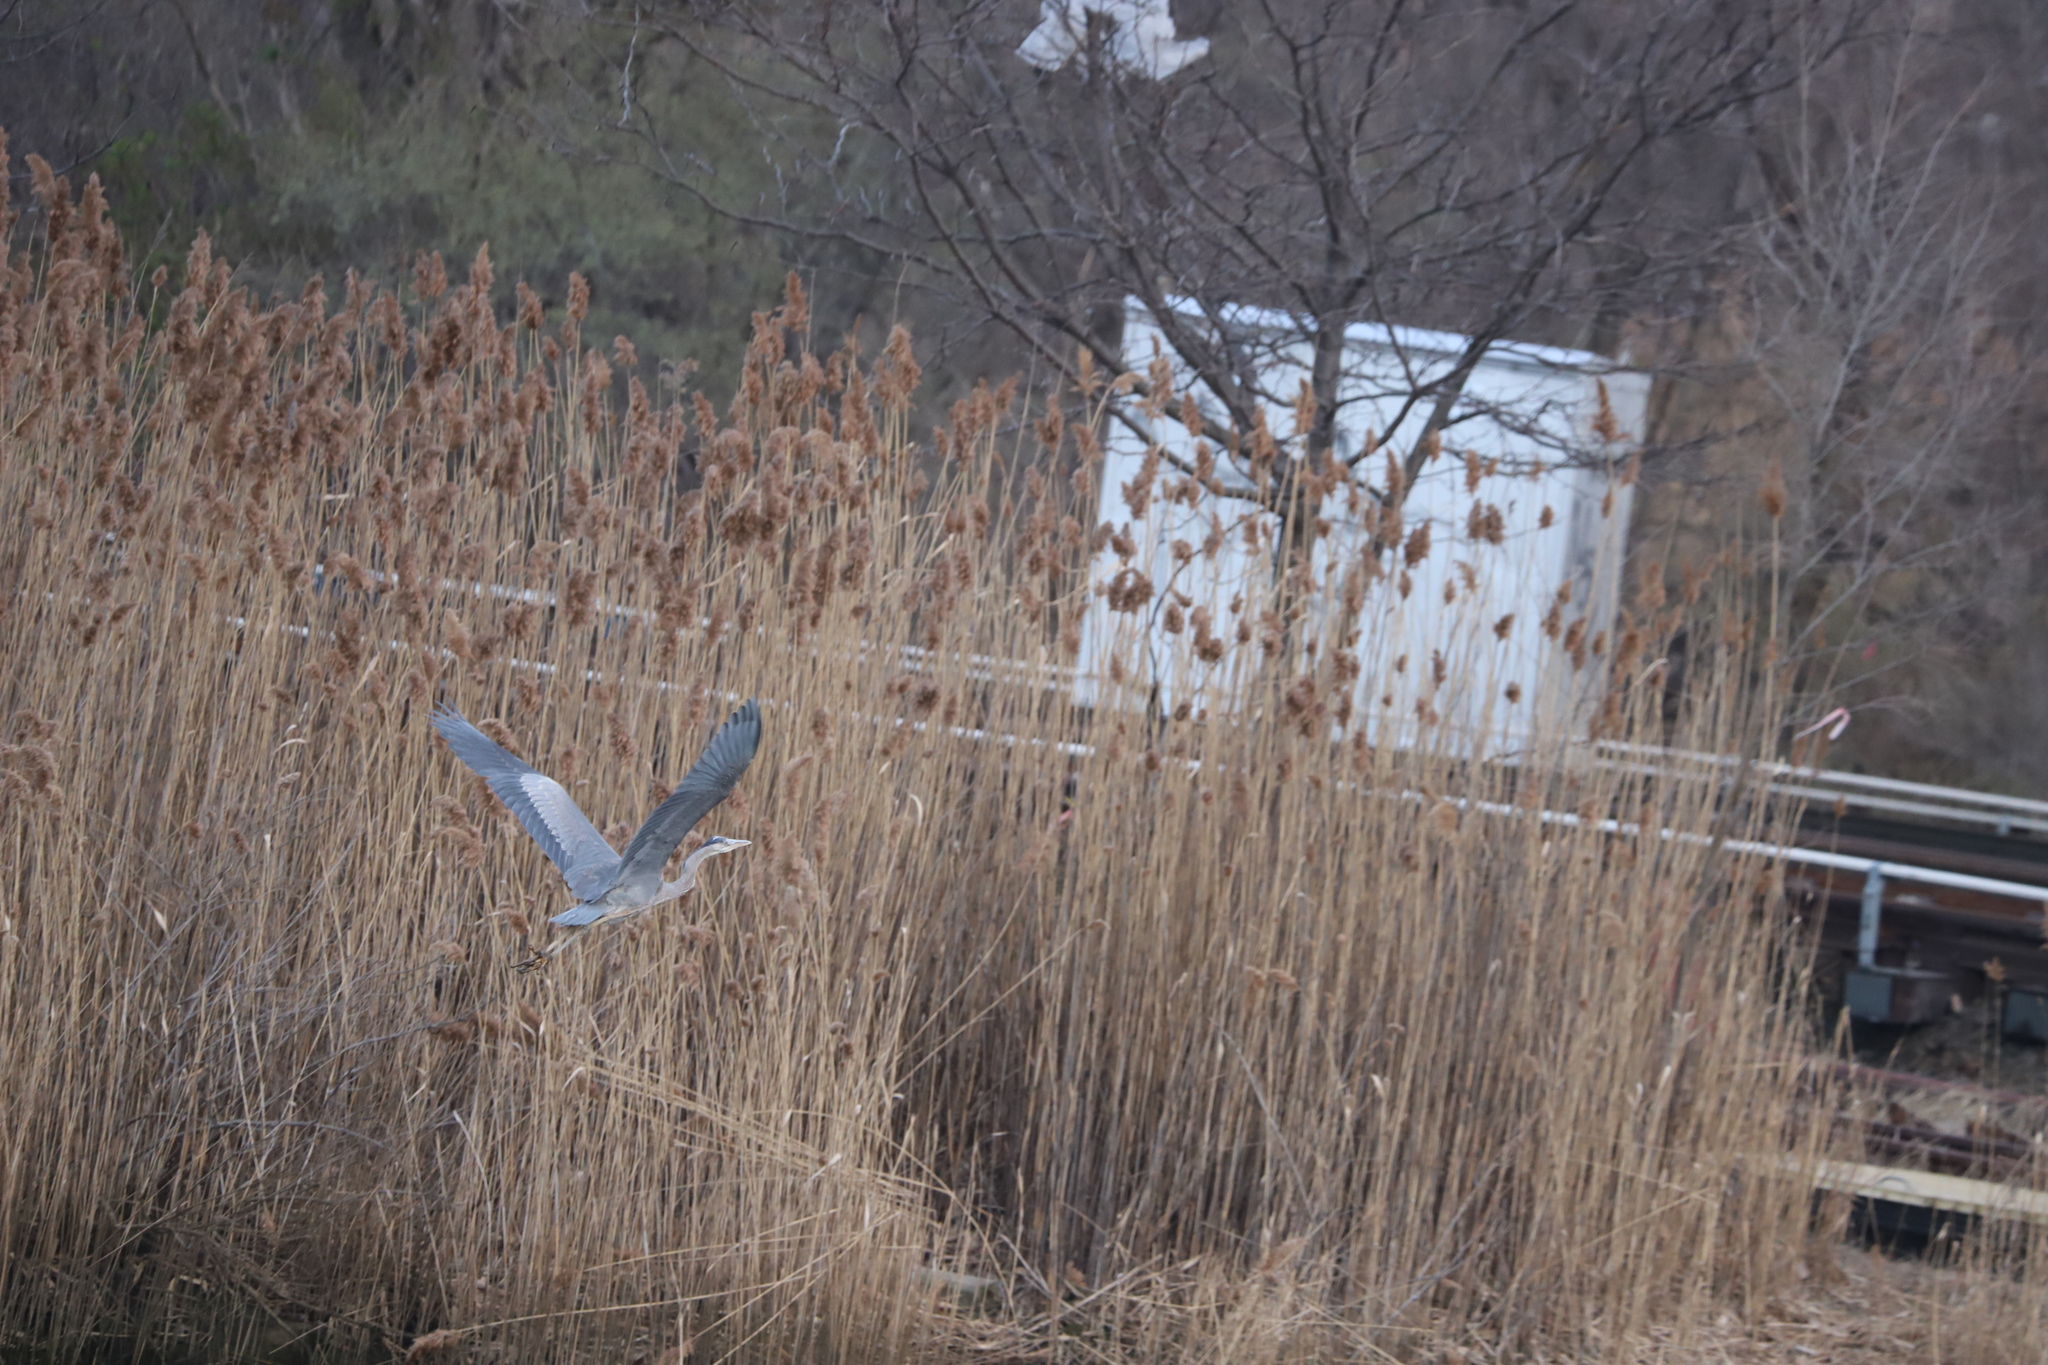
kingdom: Animalia
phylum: Chordata
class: Aves
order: Pelecaniformes
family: Ardeidae
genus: Ardea
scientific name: Ardea herodias
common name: Great blue heron
